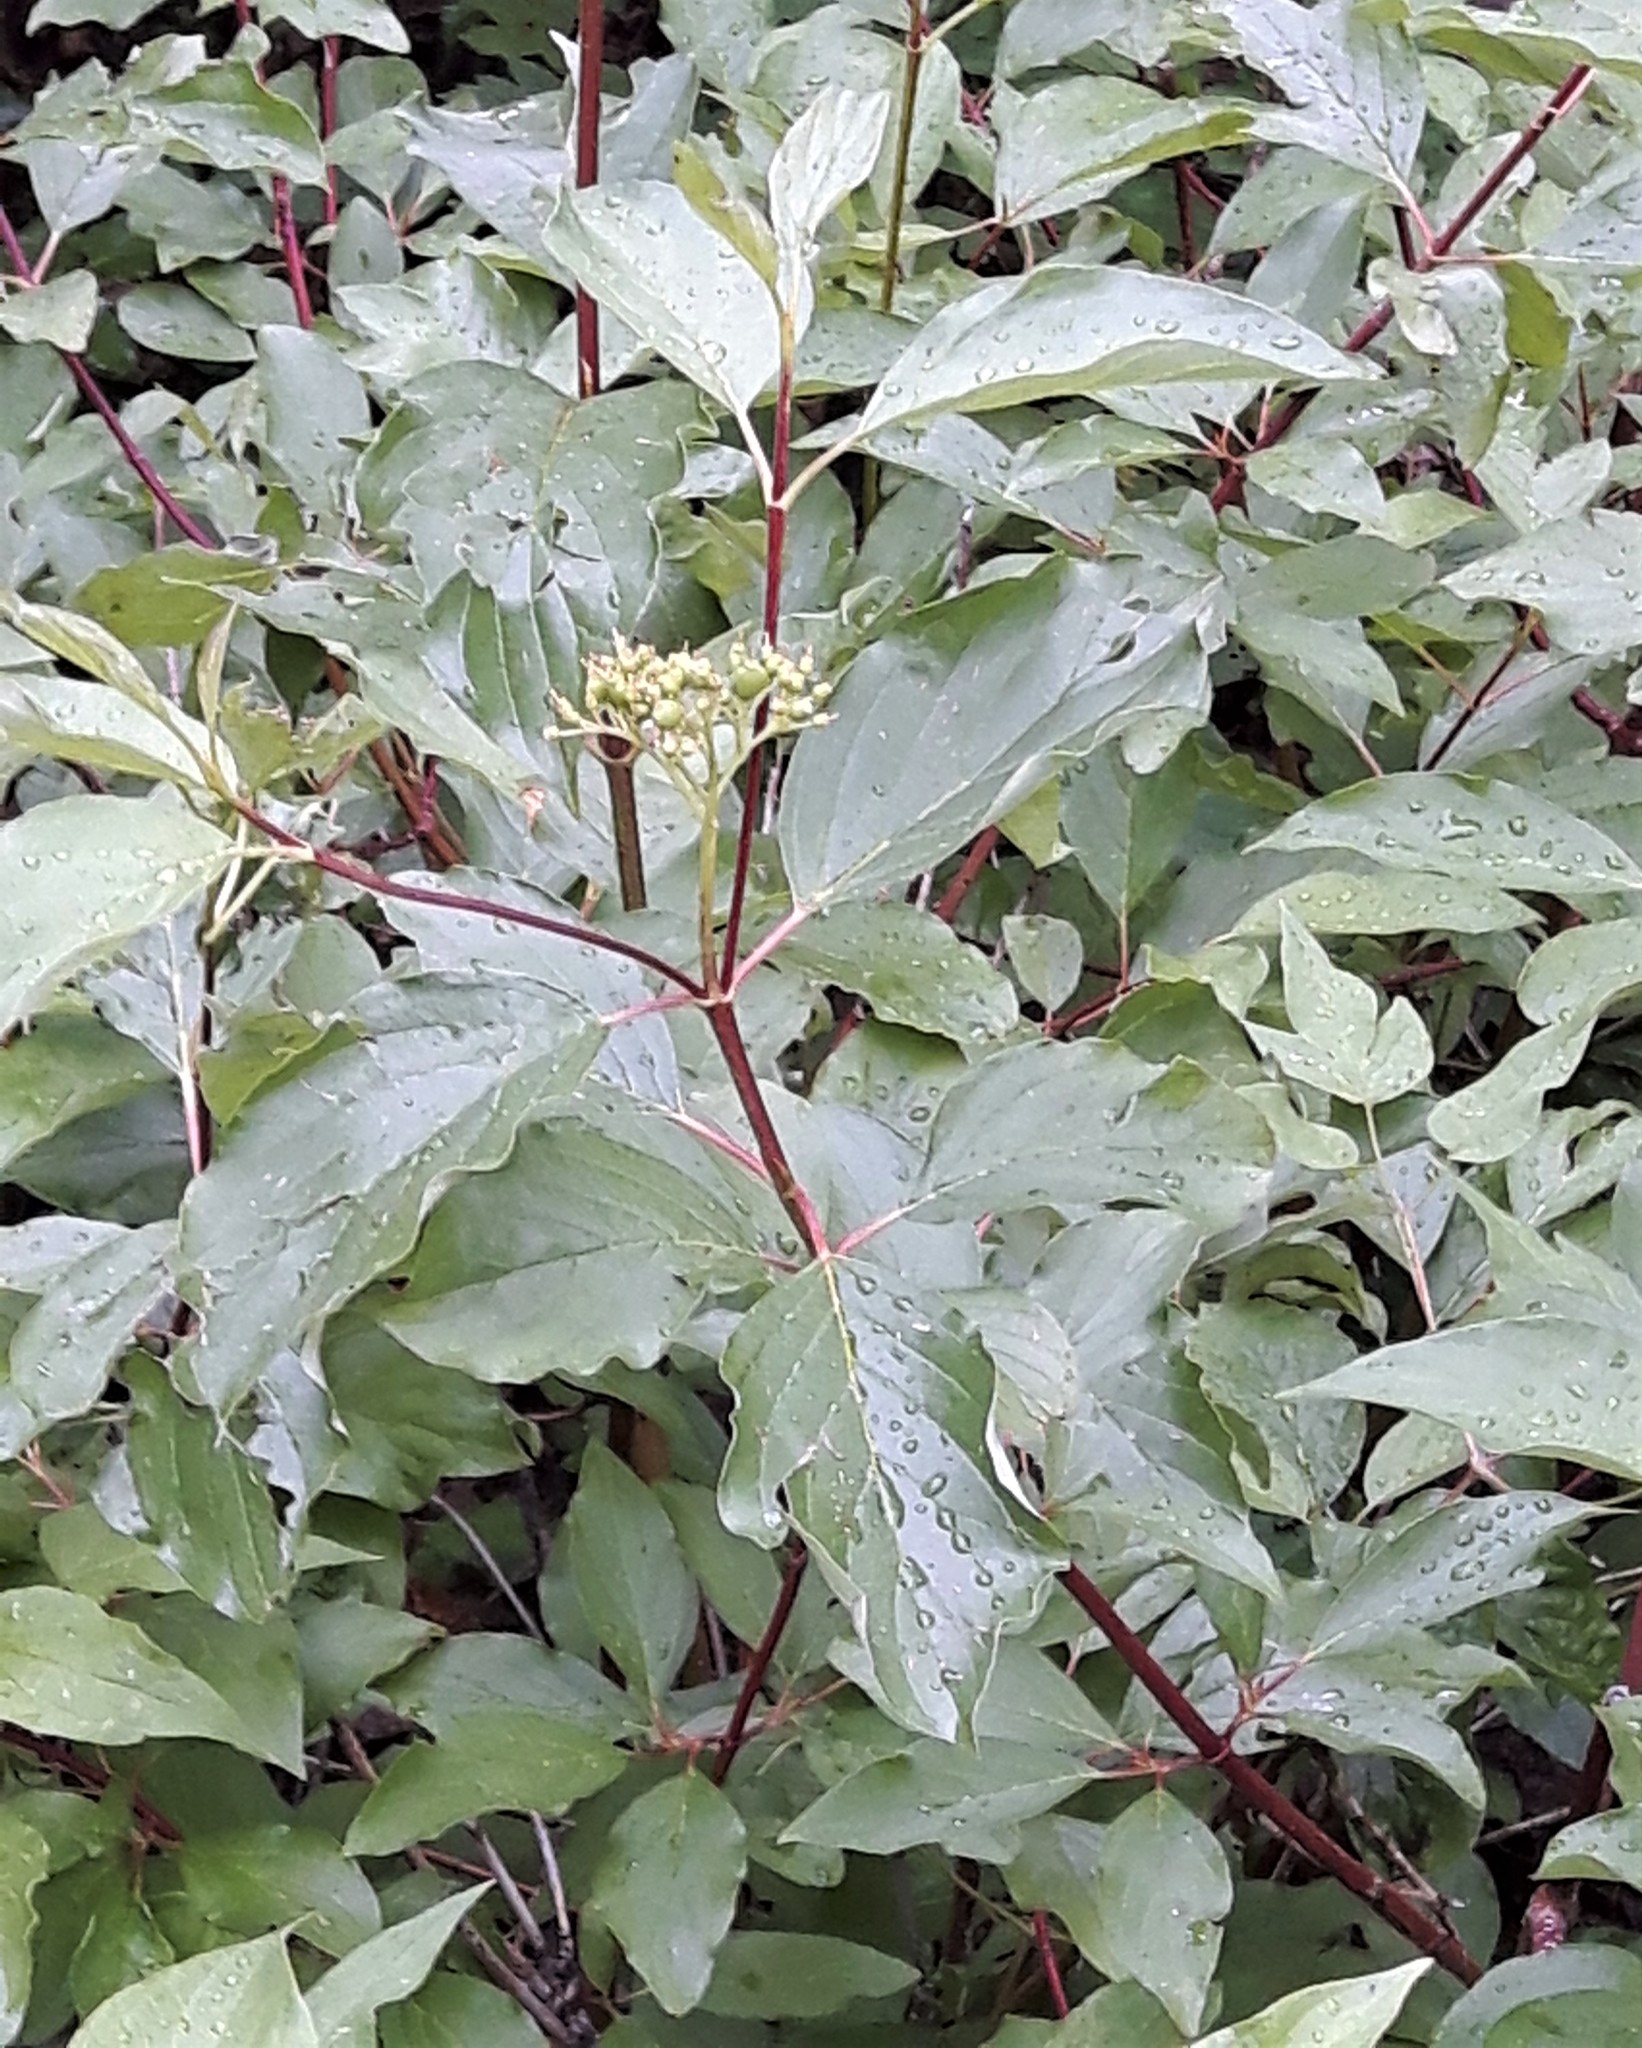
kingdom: Plantae
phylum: Tracheophyta
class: Magnoliopsida
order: Cornales
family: Cornaceae
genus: Cornus
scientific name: Cornus sericea
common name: Red-osier dogwood
